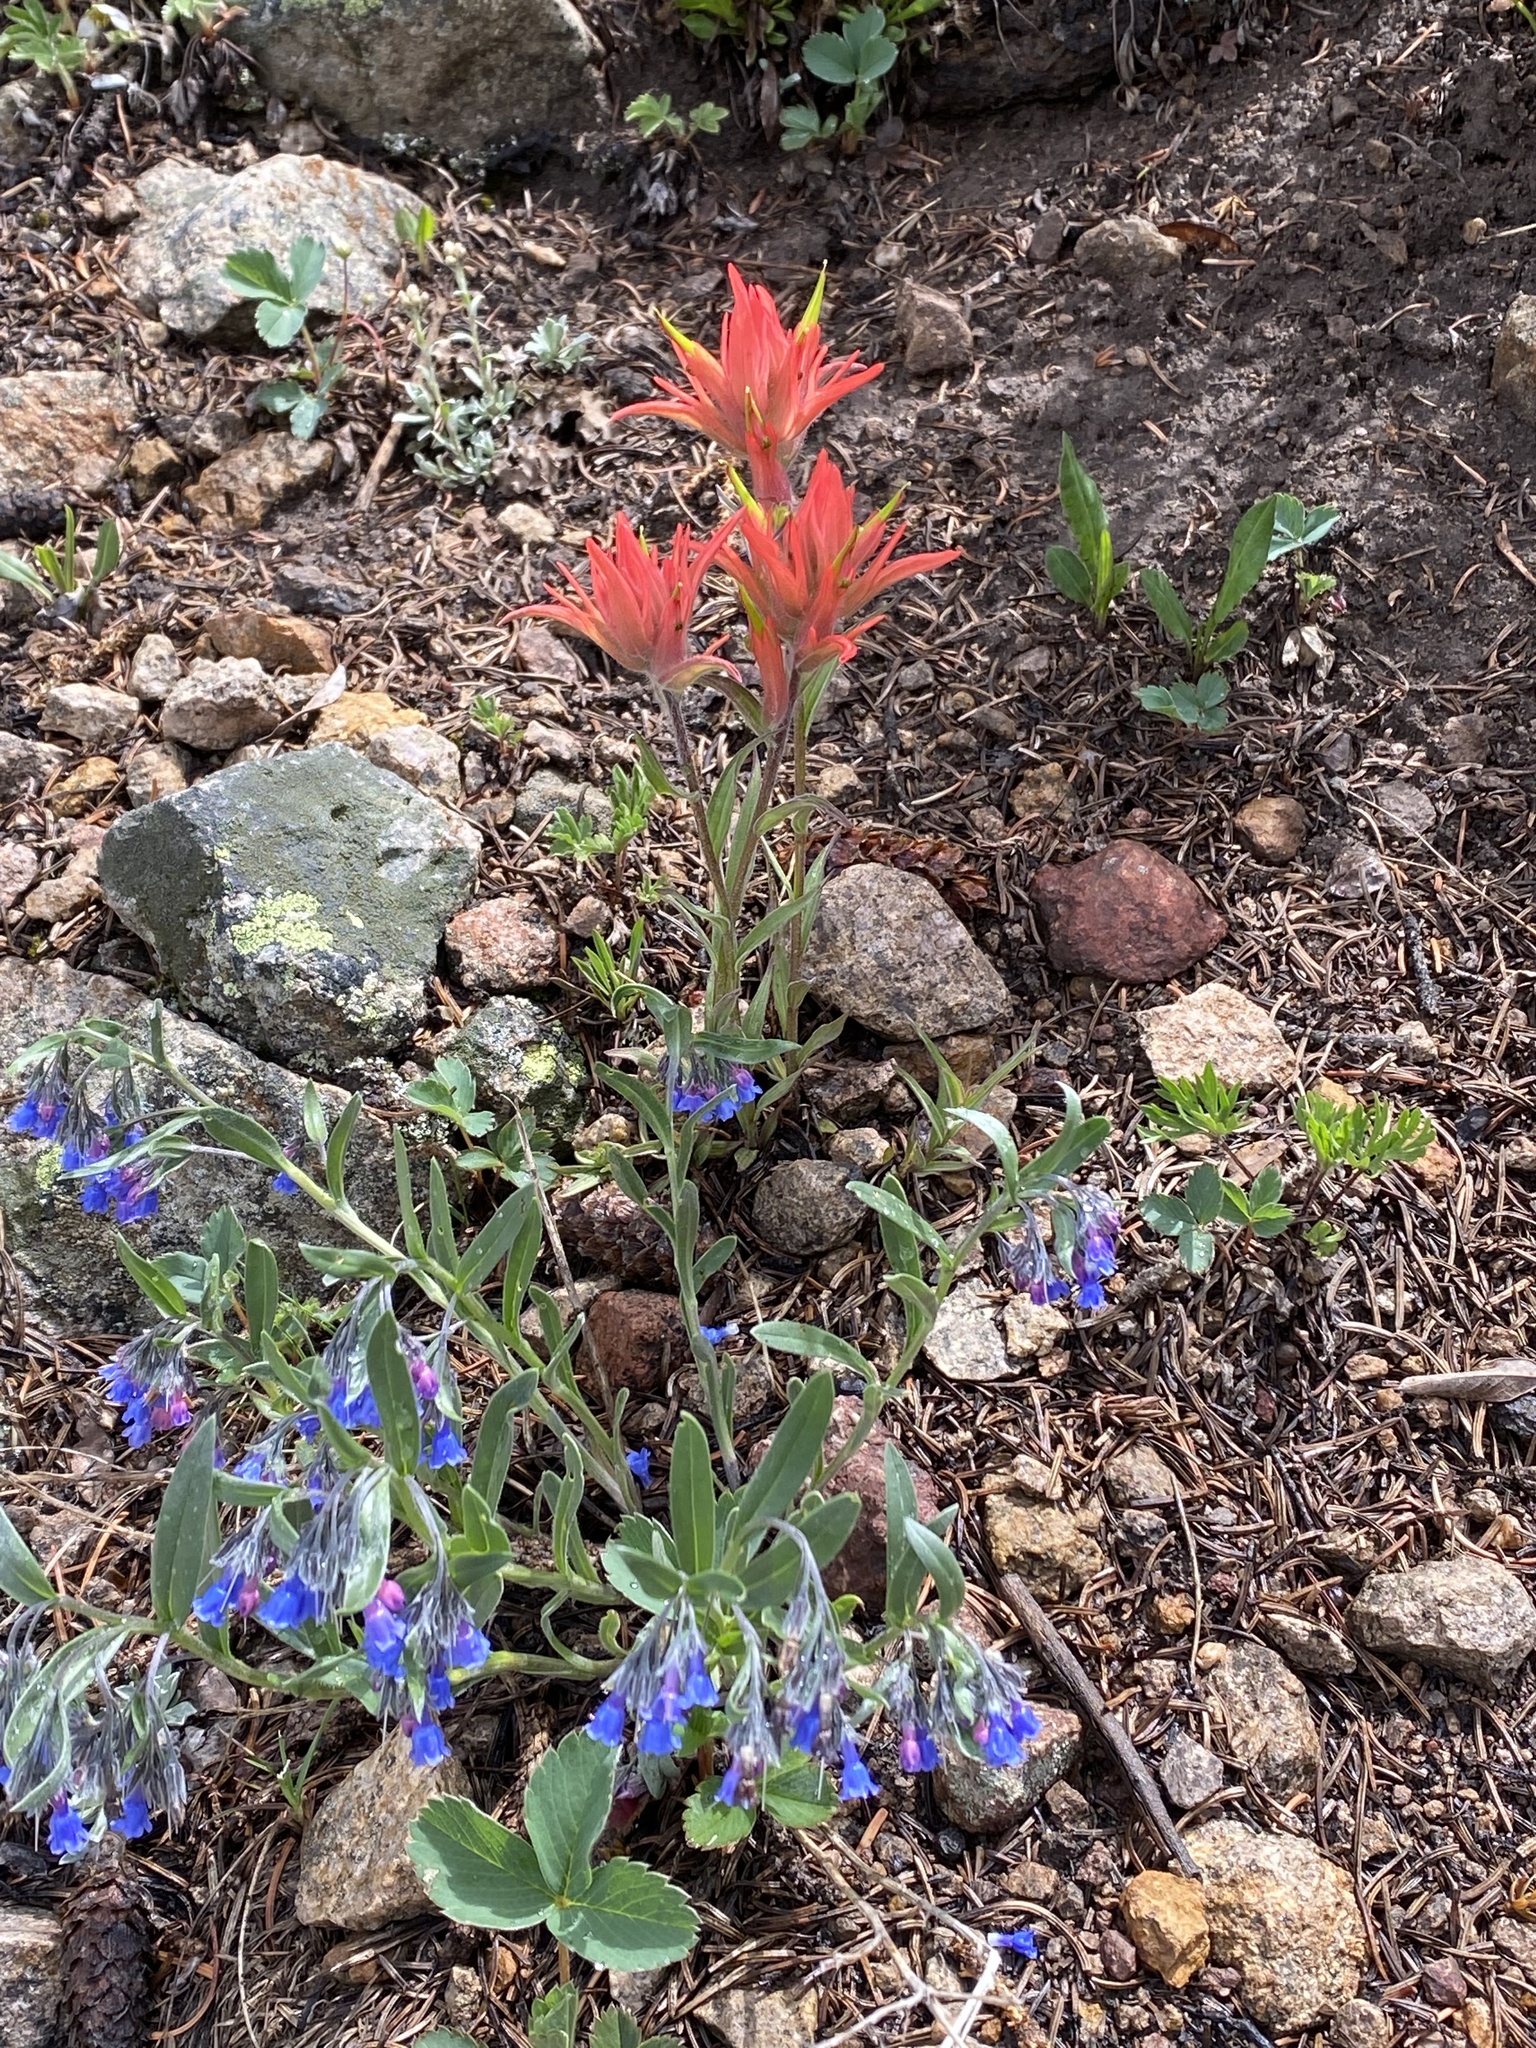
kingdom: Plantae
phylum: Tracheophyta
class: Magnoliopsida
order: Lamiales
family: Orobanchaceae
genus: Castilleja
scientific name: Castilleja miniata
